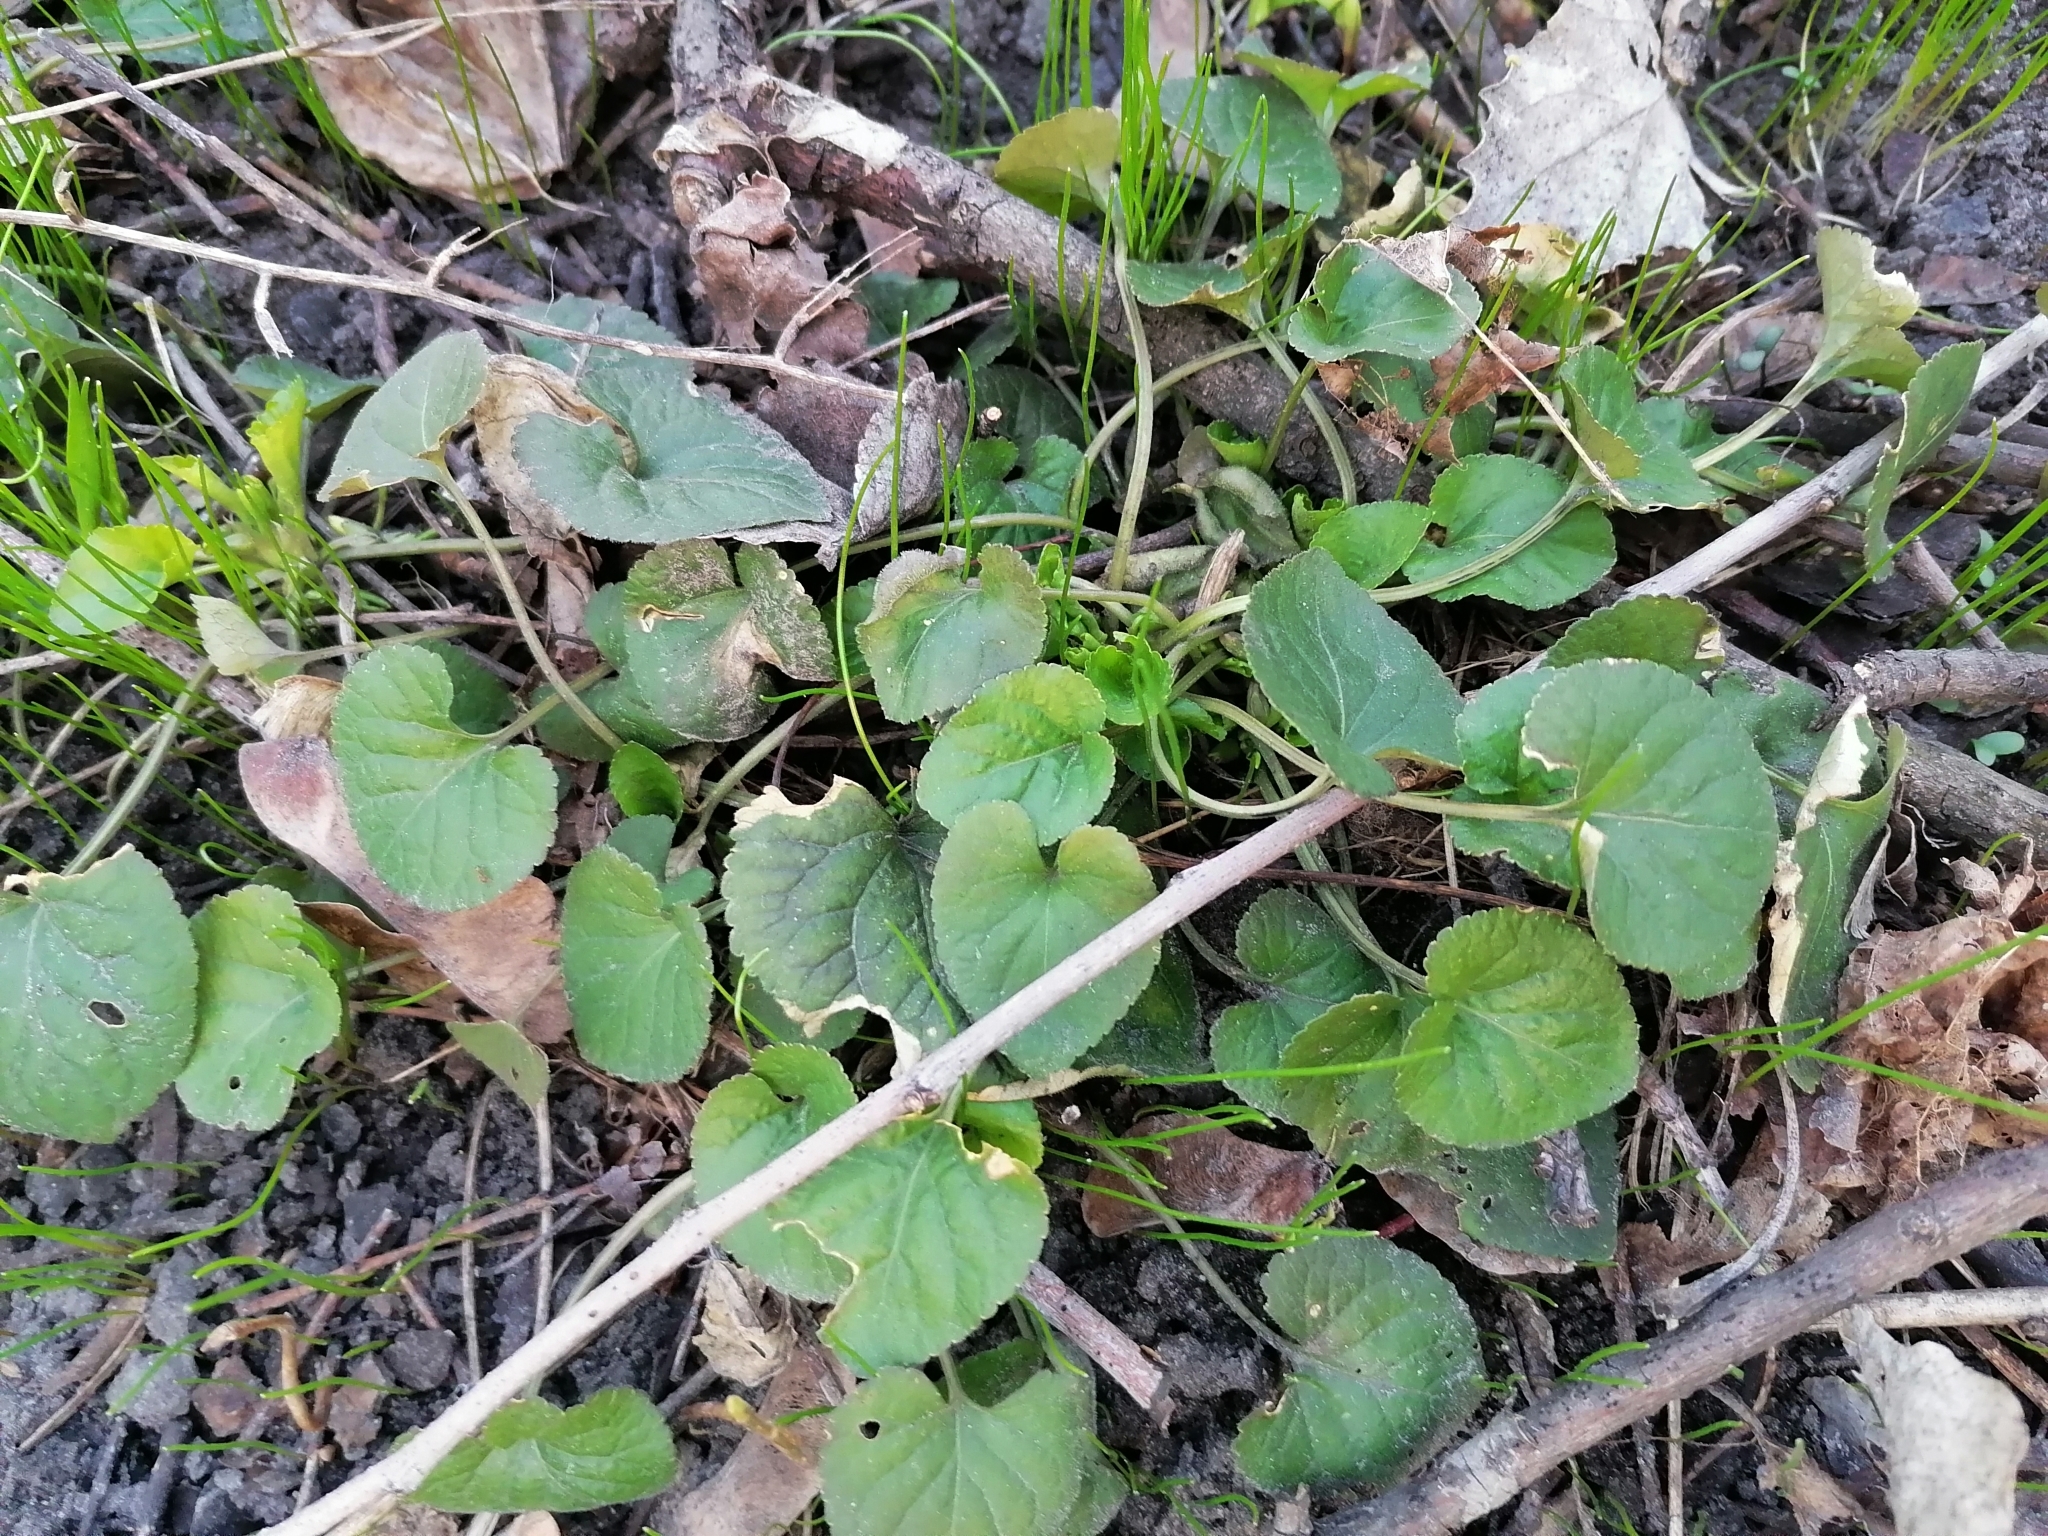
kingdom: Plantae
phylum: Tracheophyta
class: Magnoliopsida
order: Malpighiales
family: Violaceae
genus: Viola
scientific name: Viola odorata
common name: Sweet violet
